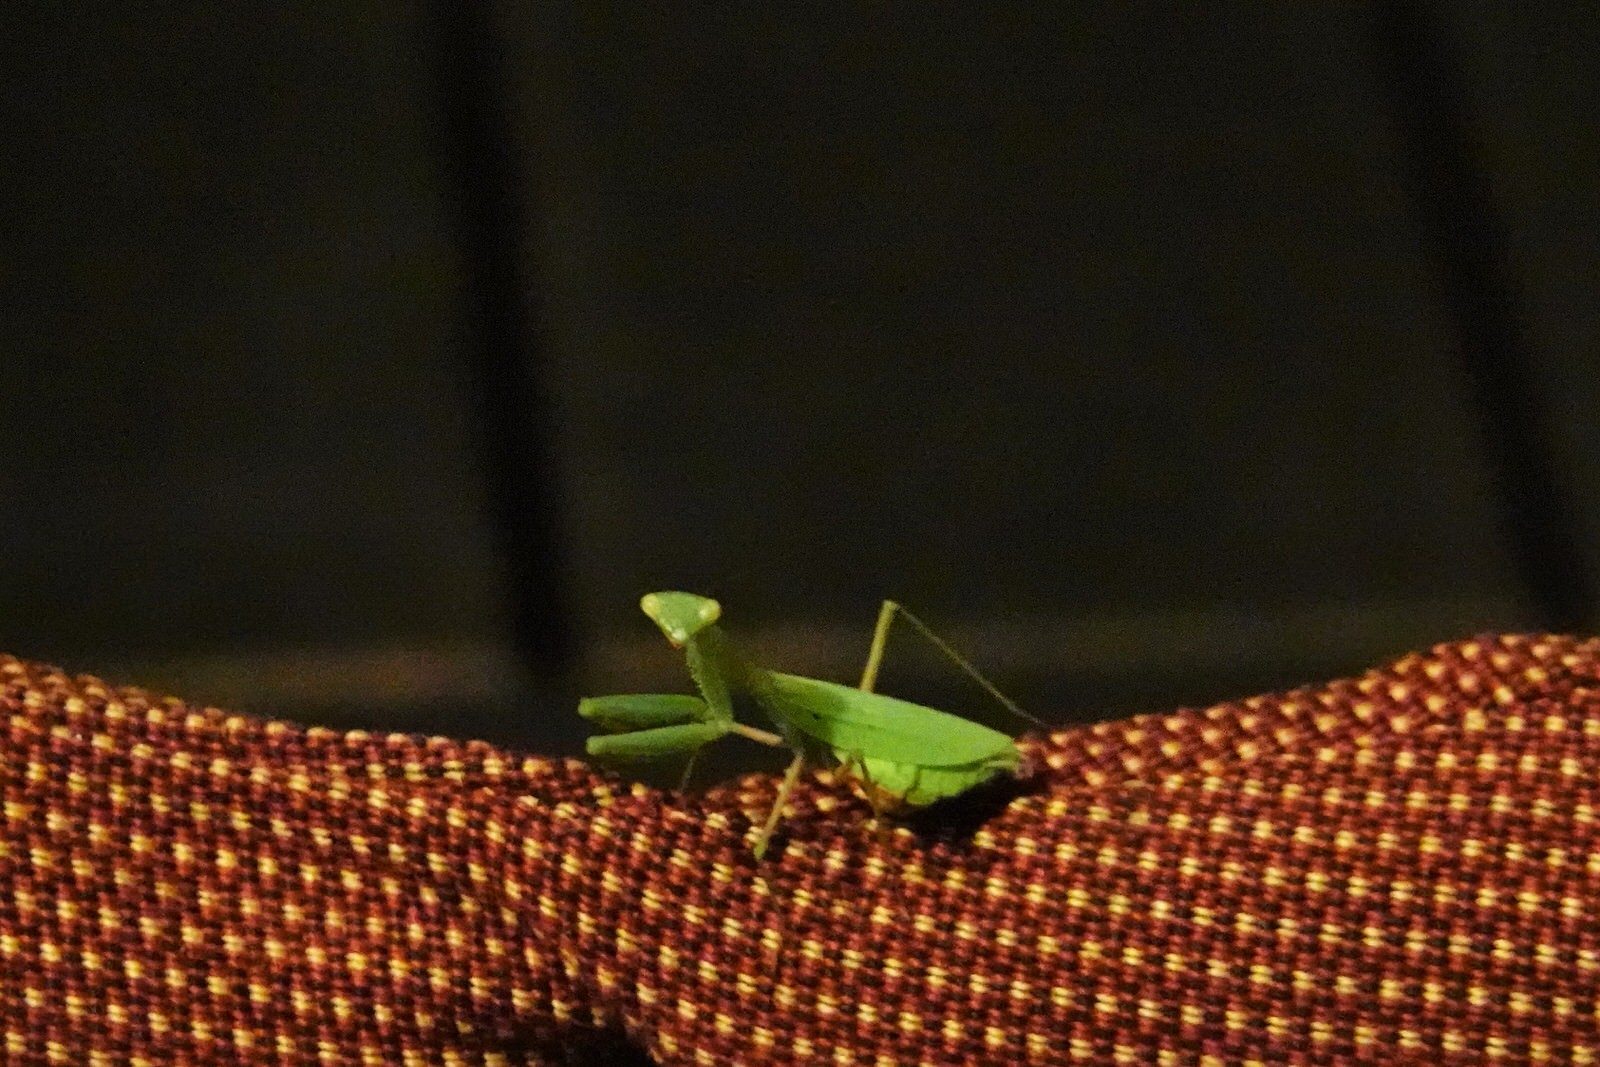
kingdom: Animalia
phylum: Arthropoda
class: Insecta
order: Mantodea
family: Miomantidae
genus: Miomantis
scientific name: Miomantis caffra
